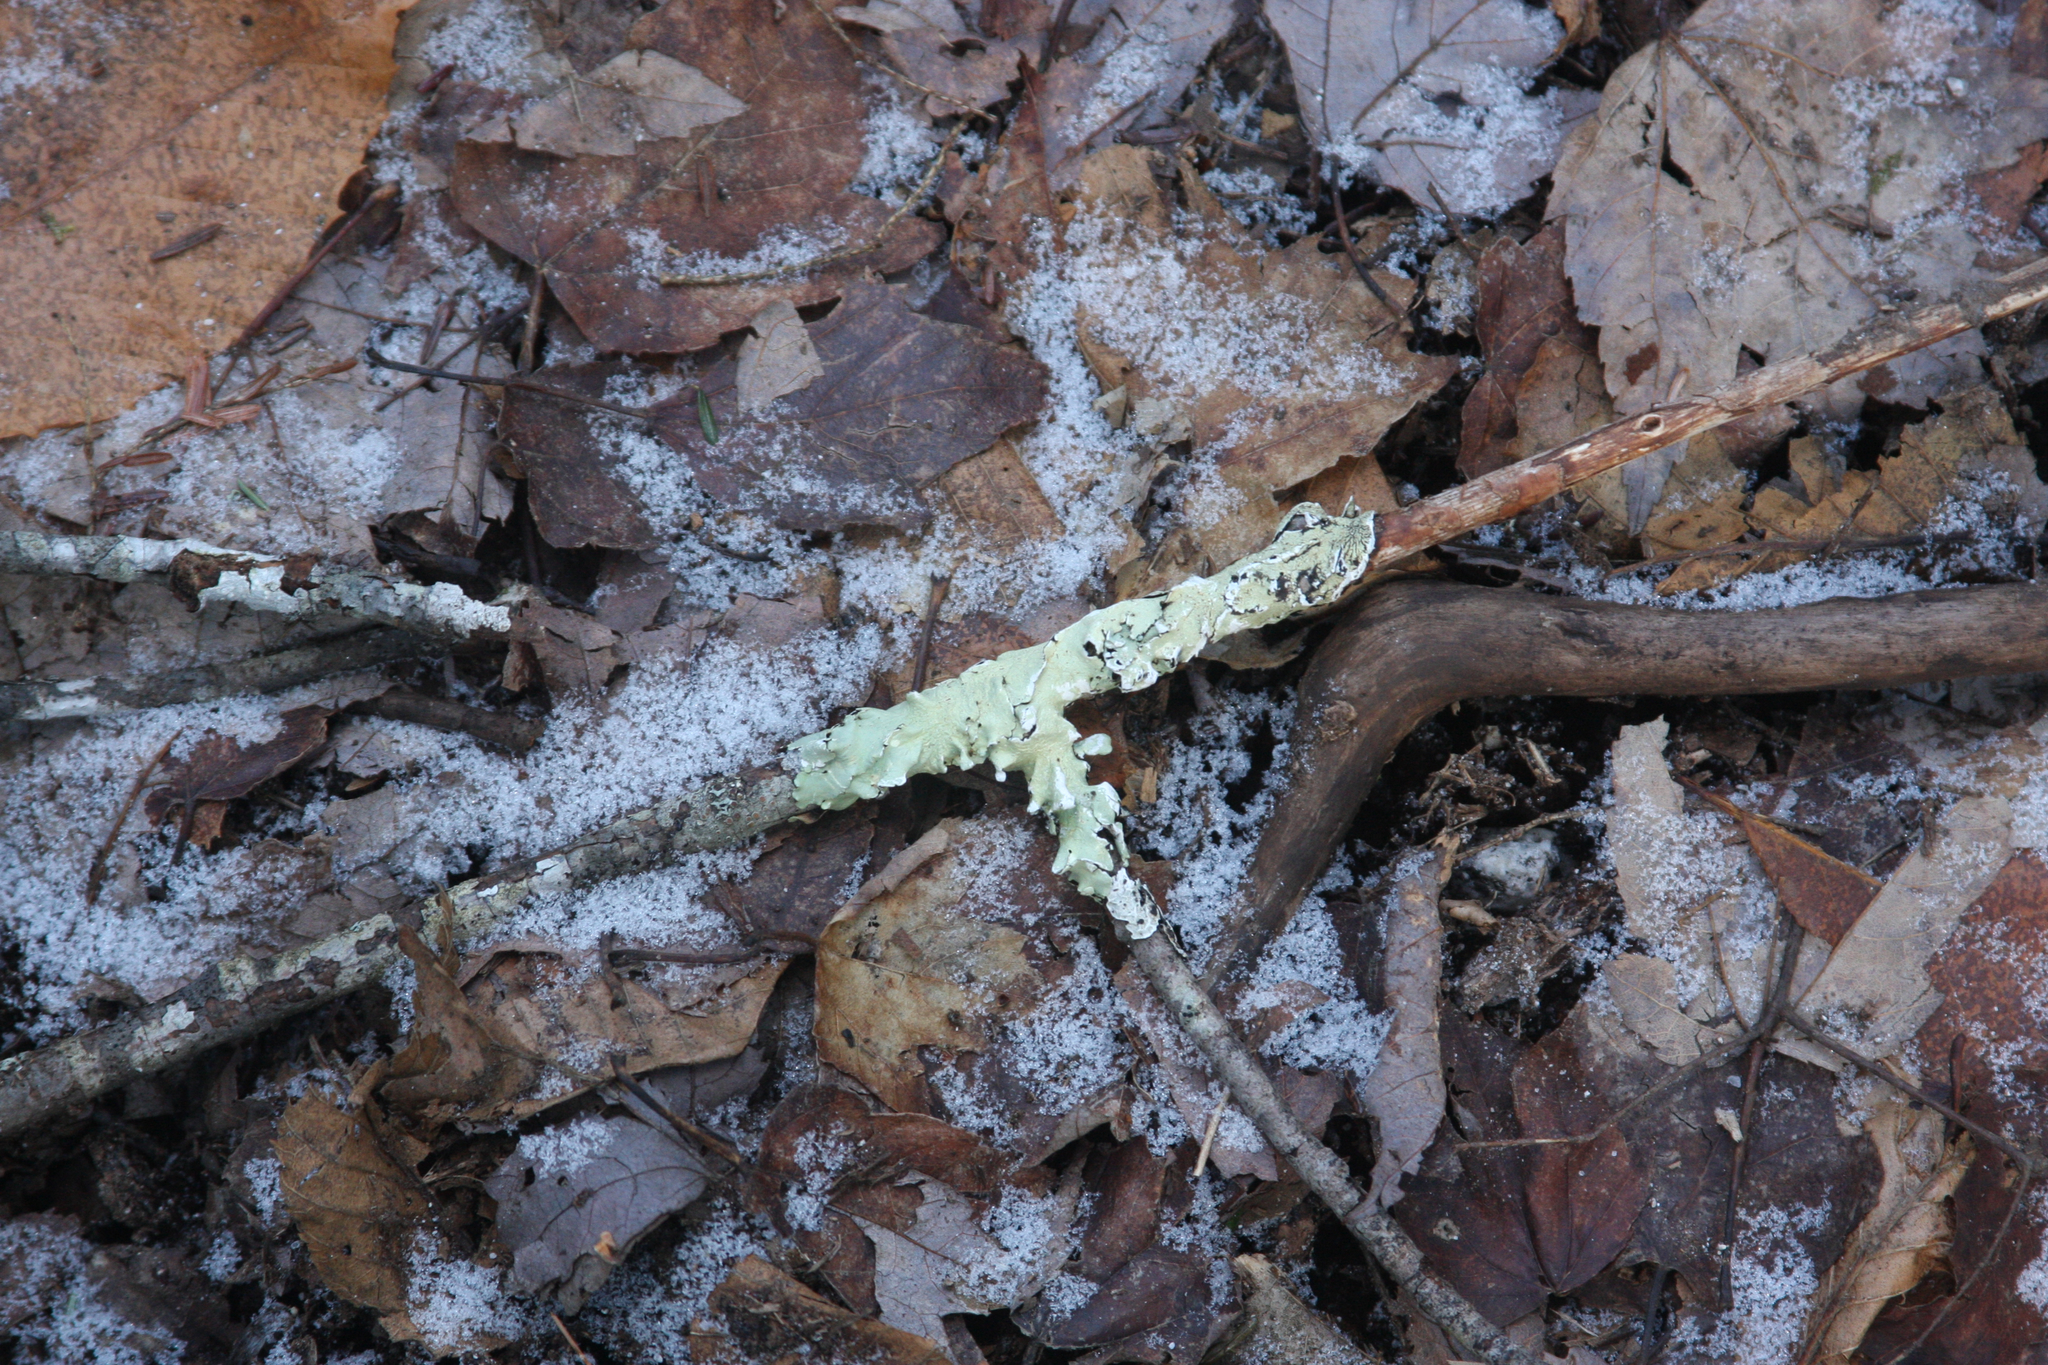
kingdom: Fungi
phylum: Ascomycota
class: Lecanoromycetes
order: Lecanorales
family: Parmeliaceae
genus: Flavoparmelia
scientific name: Flavoparmelia caperata
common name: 40-mile per hour lichen
